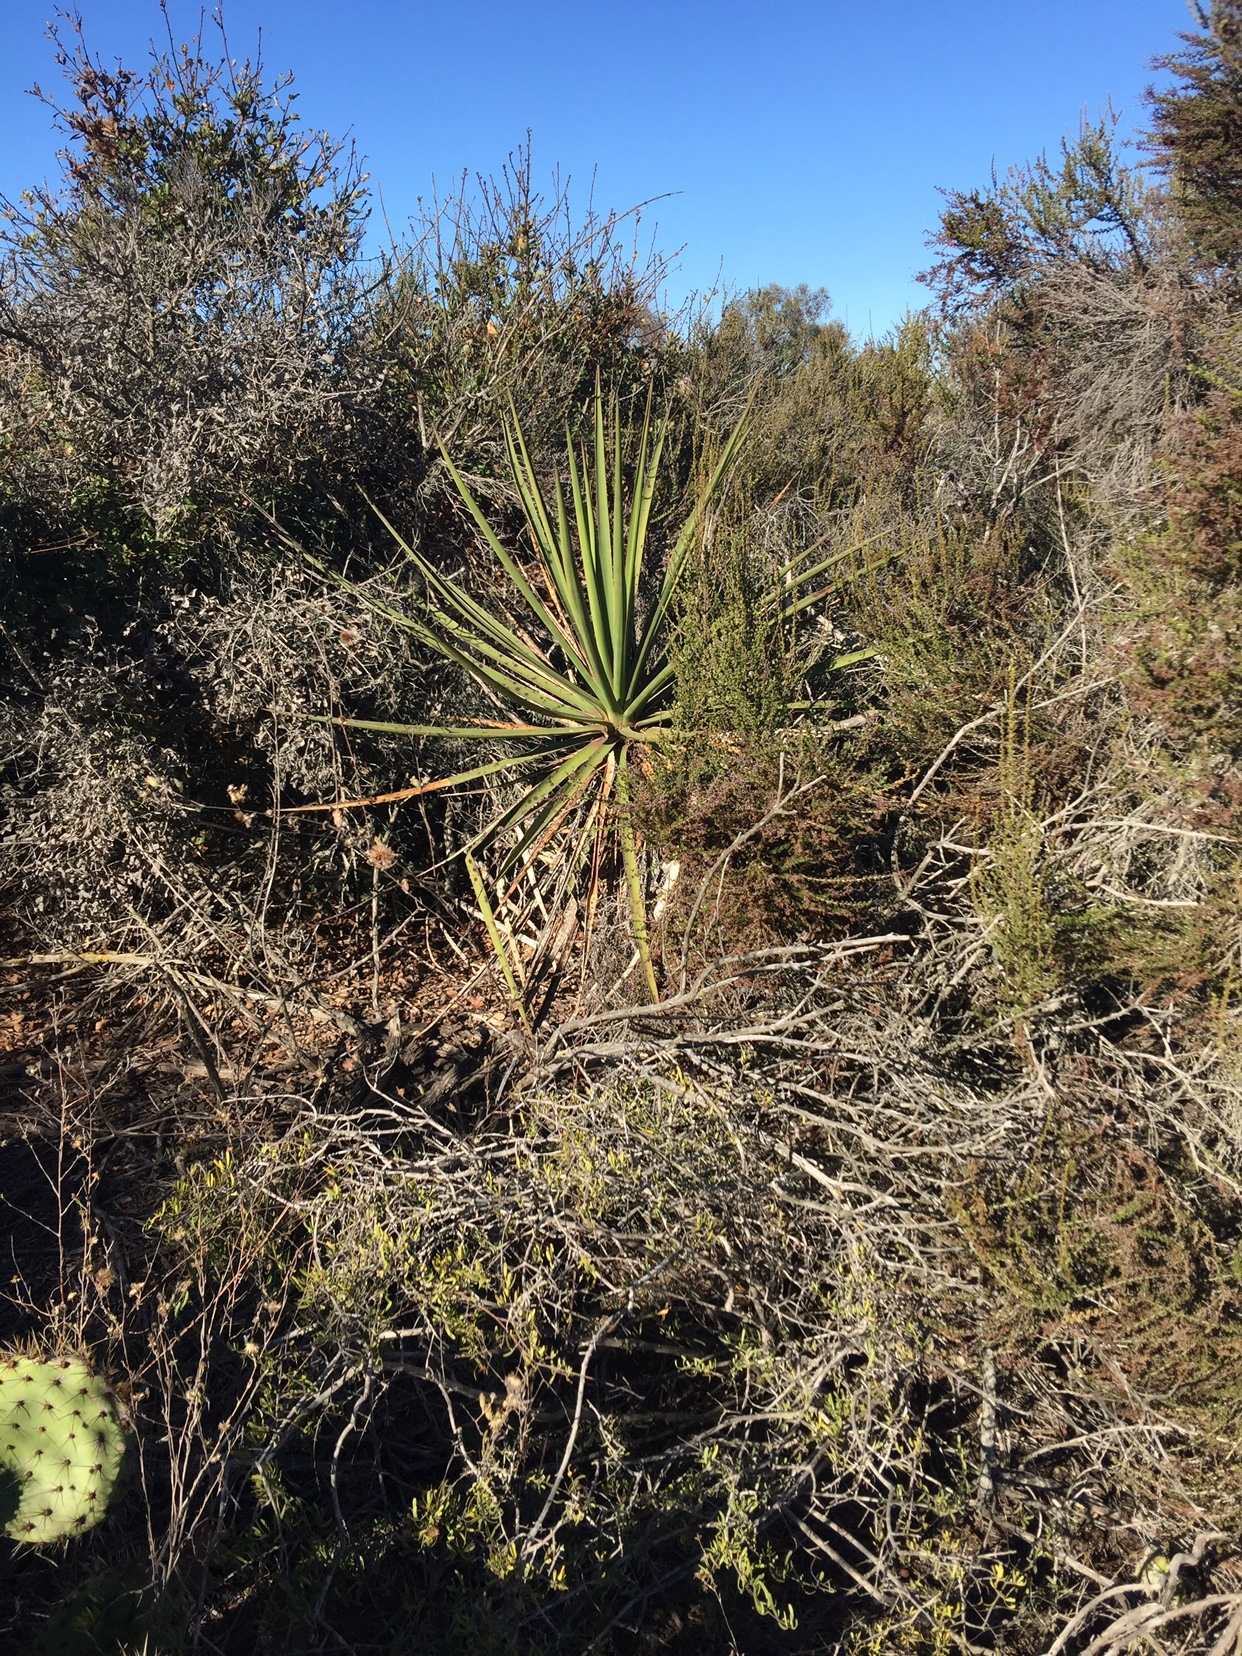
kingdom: Plantae
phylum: Tracheophyta
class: Liliopsida
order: Asparagales
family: Asparagaceae
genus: Yucca
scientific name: Yucca schidigera
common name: Mojave yucca
